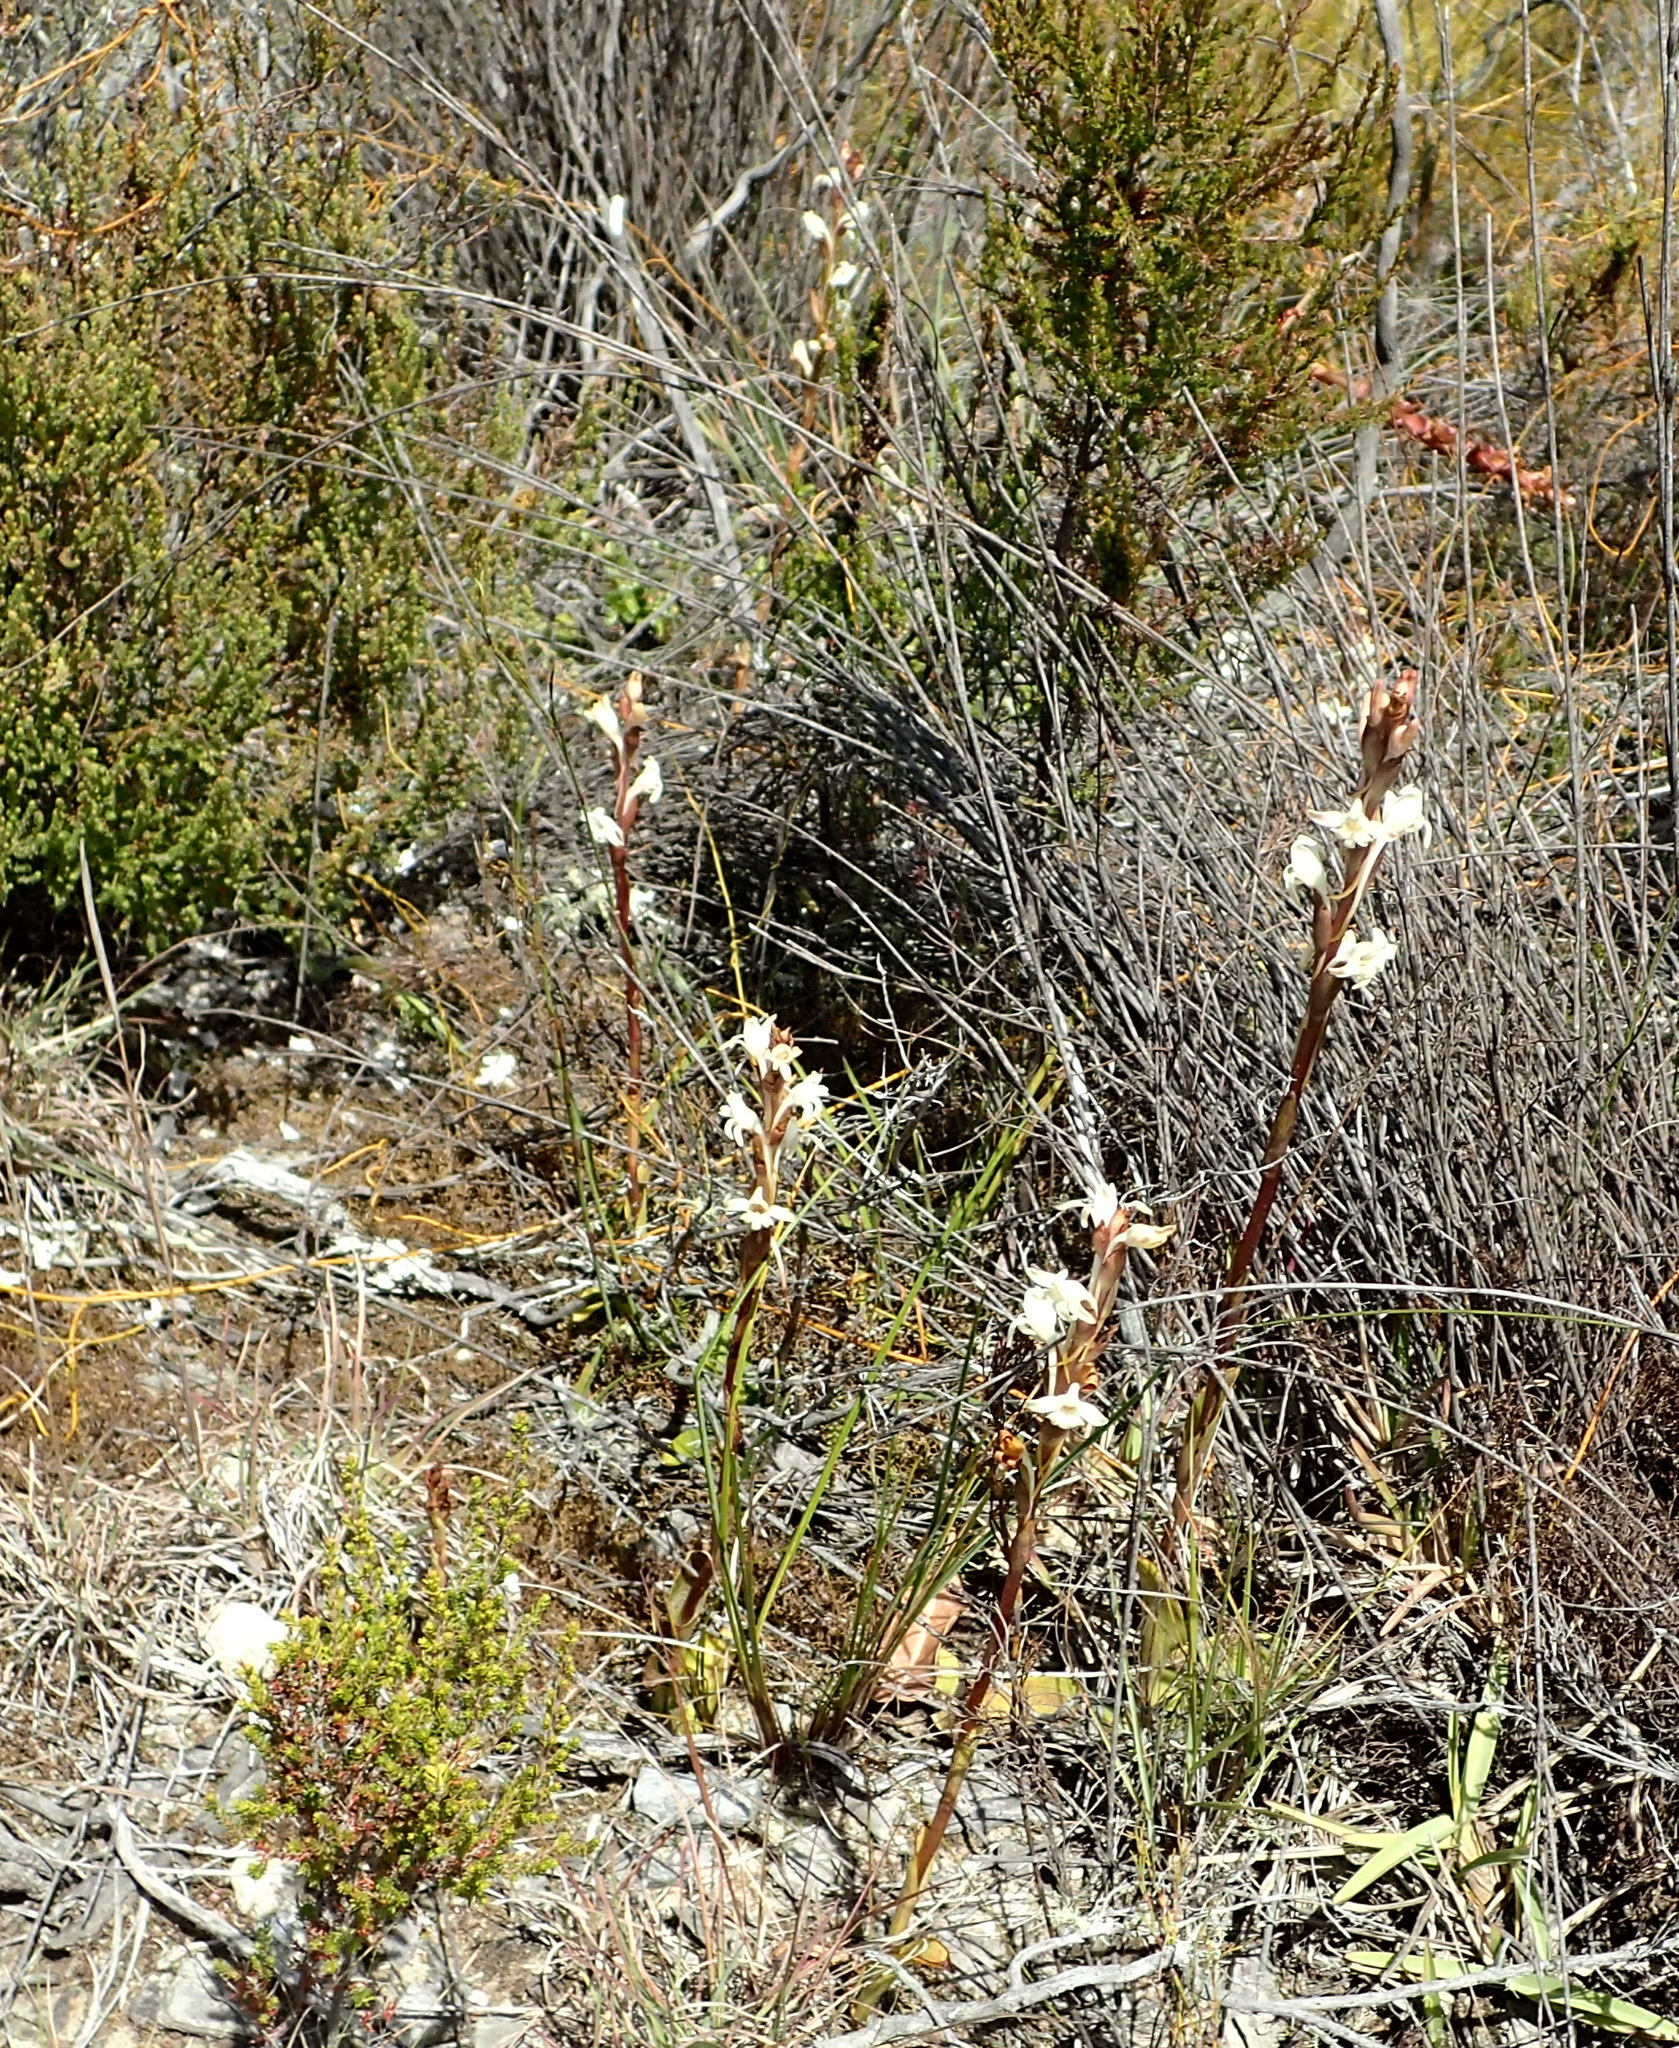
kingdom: Plantae
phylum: Tracheophyta
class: Liliopsida
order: Asparagales
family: Orchidaceae
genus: Satyrium
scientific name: Satyrium stenopetalum
